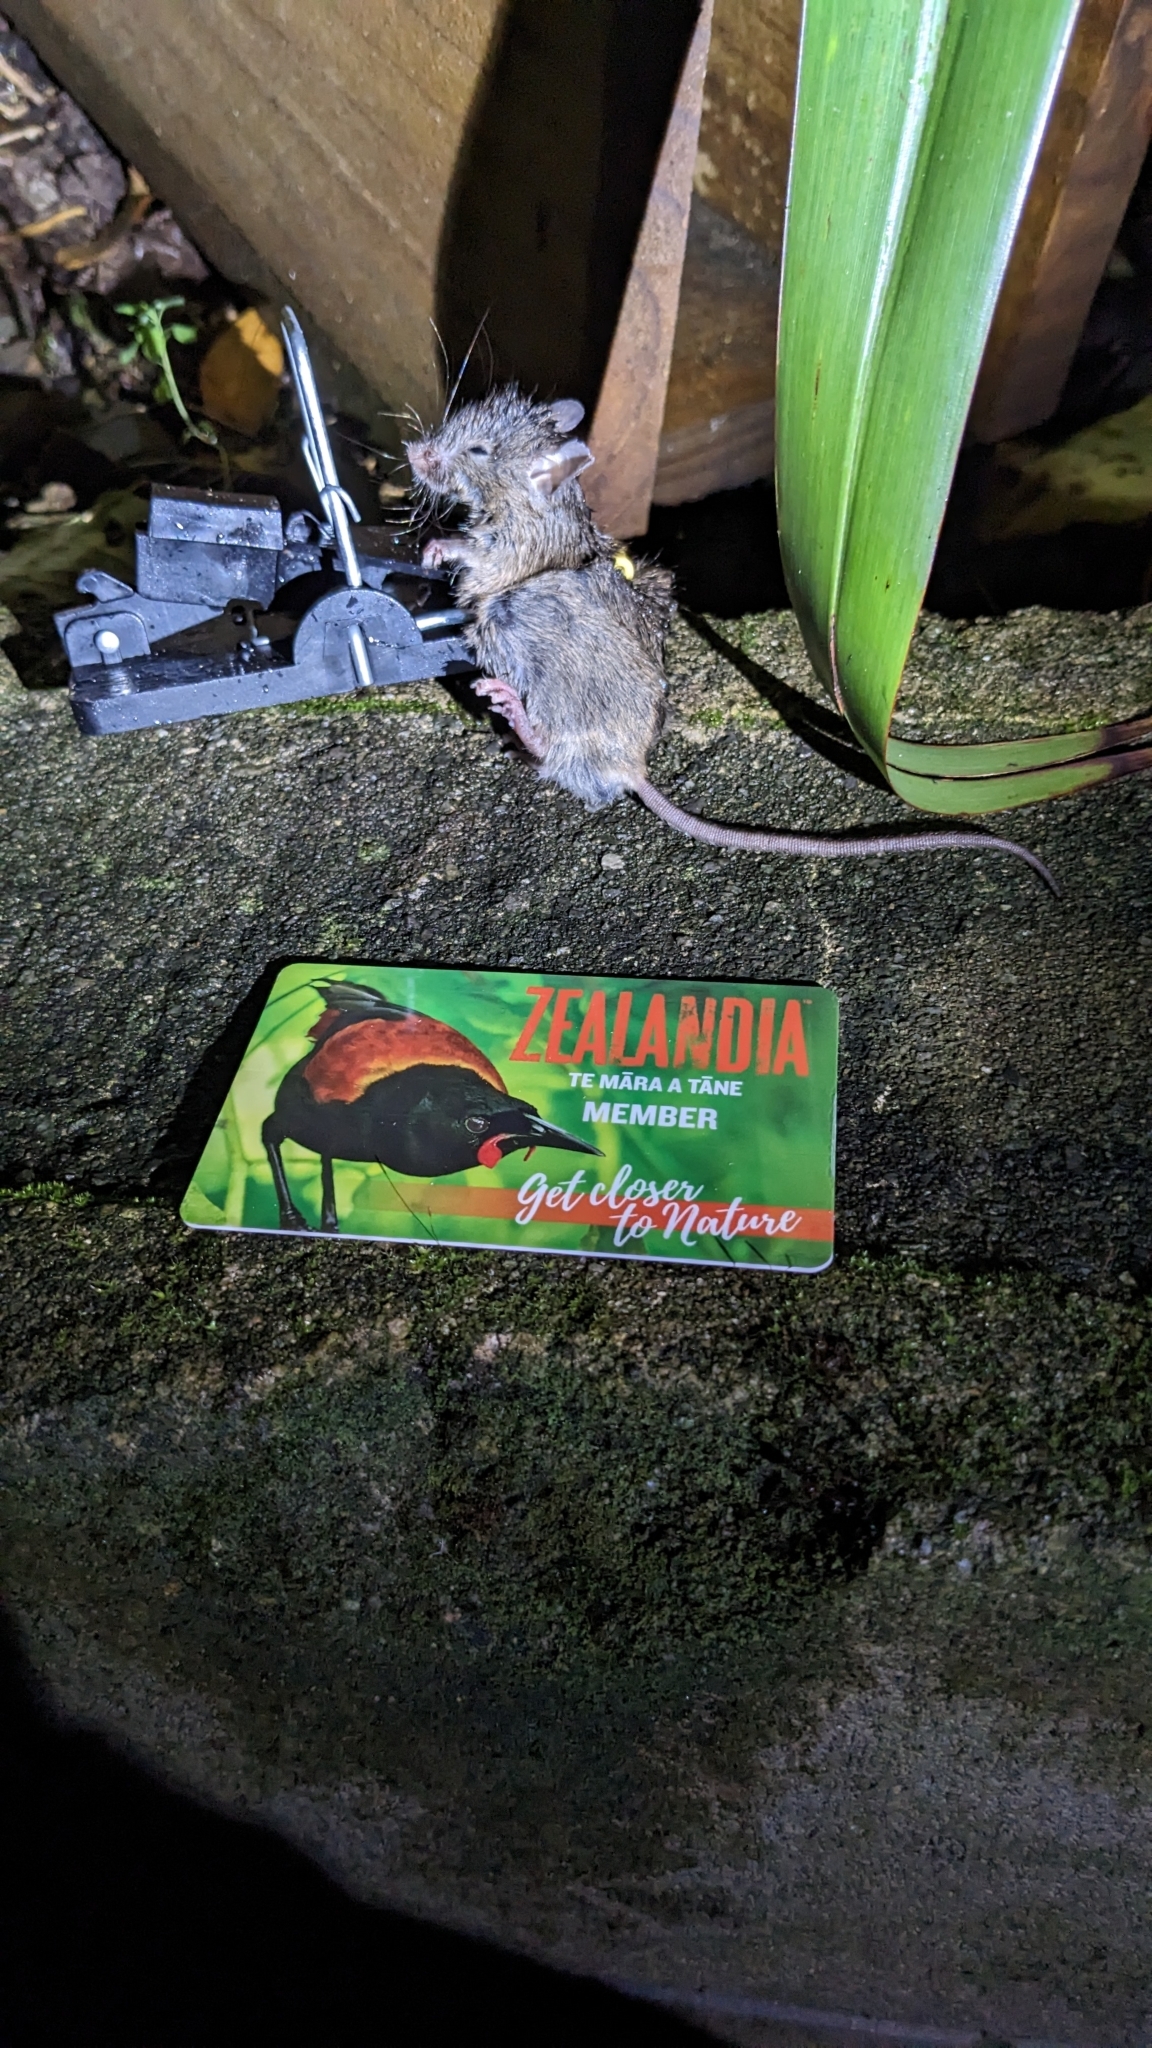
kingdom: Animalia
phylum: Chordata
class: Mammalia
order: Rodentia
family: Muridae
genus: Mus
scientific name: Mus musculus
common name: House mouse
